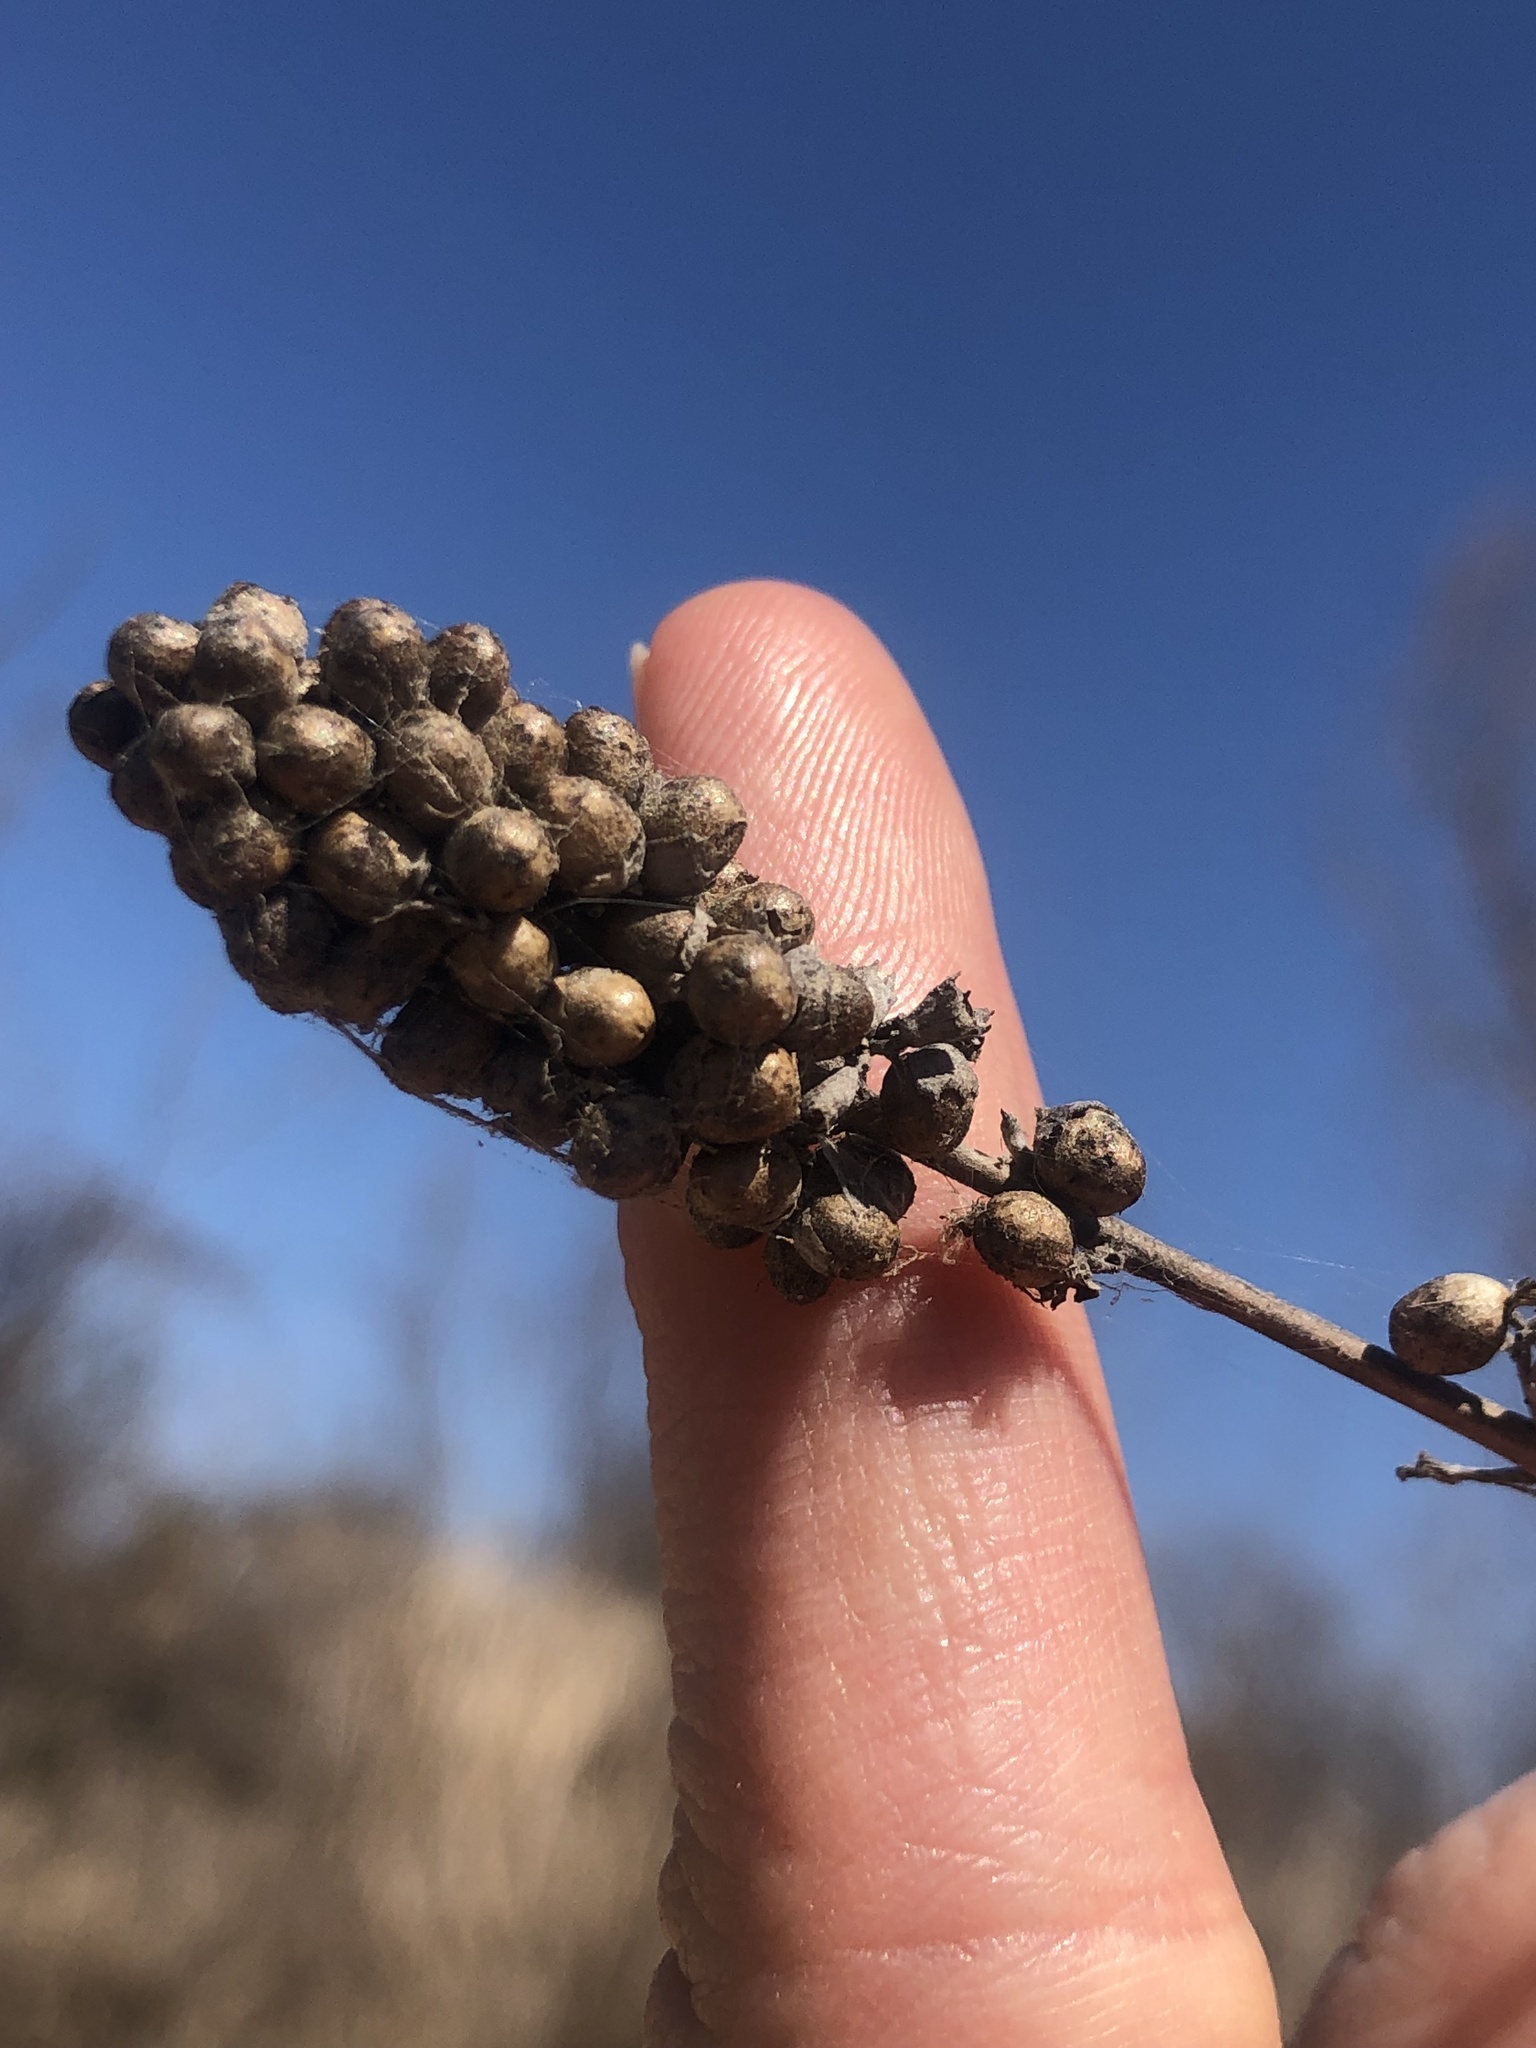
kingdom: Plantae
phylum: Tracheophyta
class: Magnoliopsida
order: Lamiales
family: Lamiaceae
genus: Vitex
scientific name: Vitex agnus-castus
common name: Chasteberry
